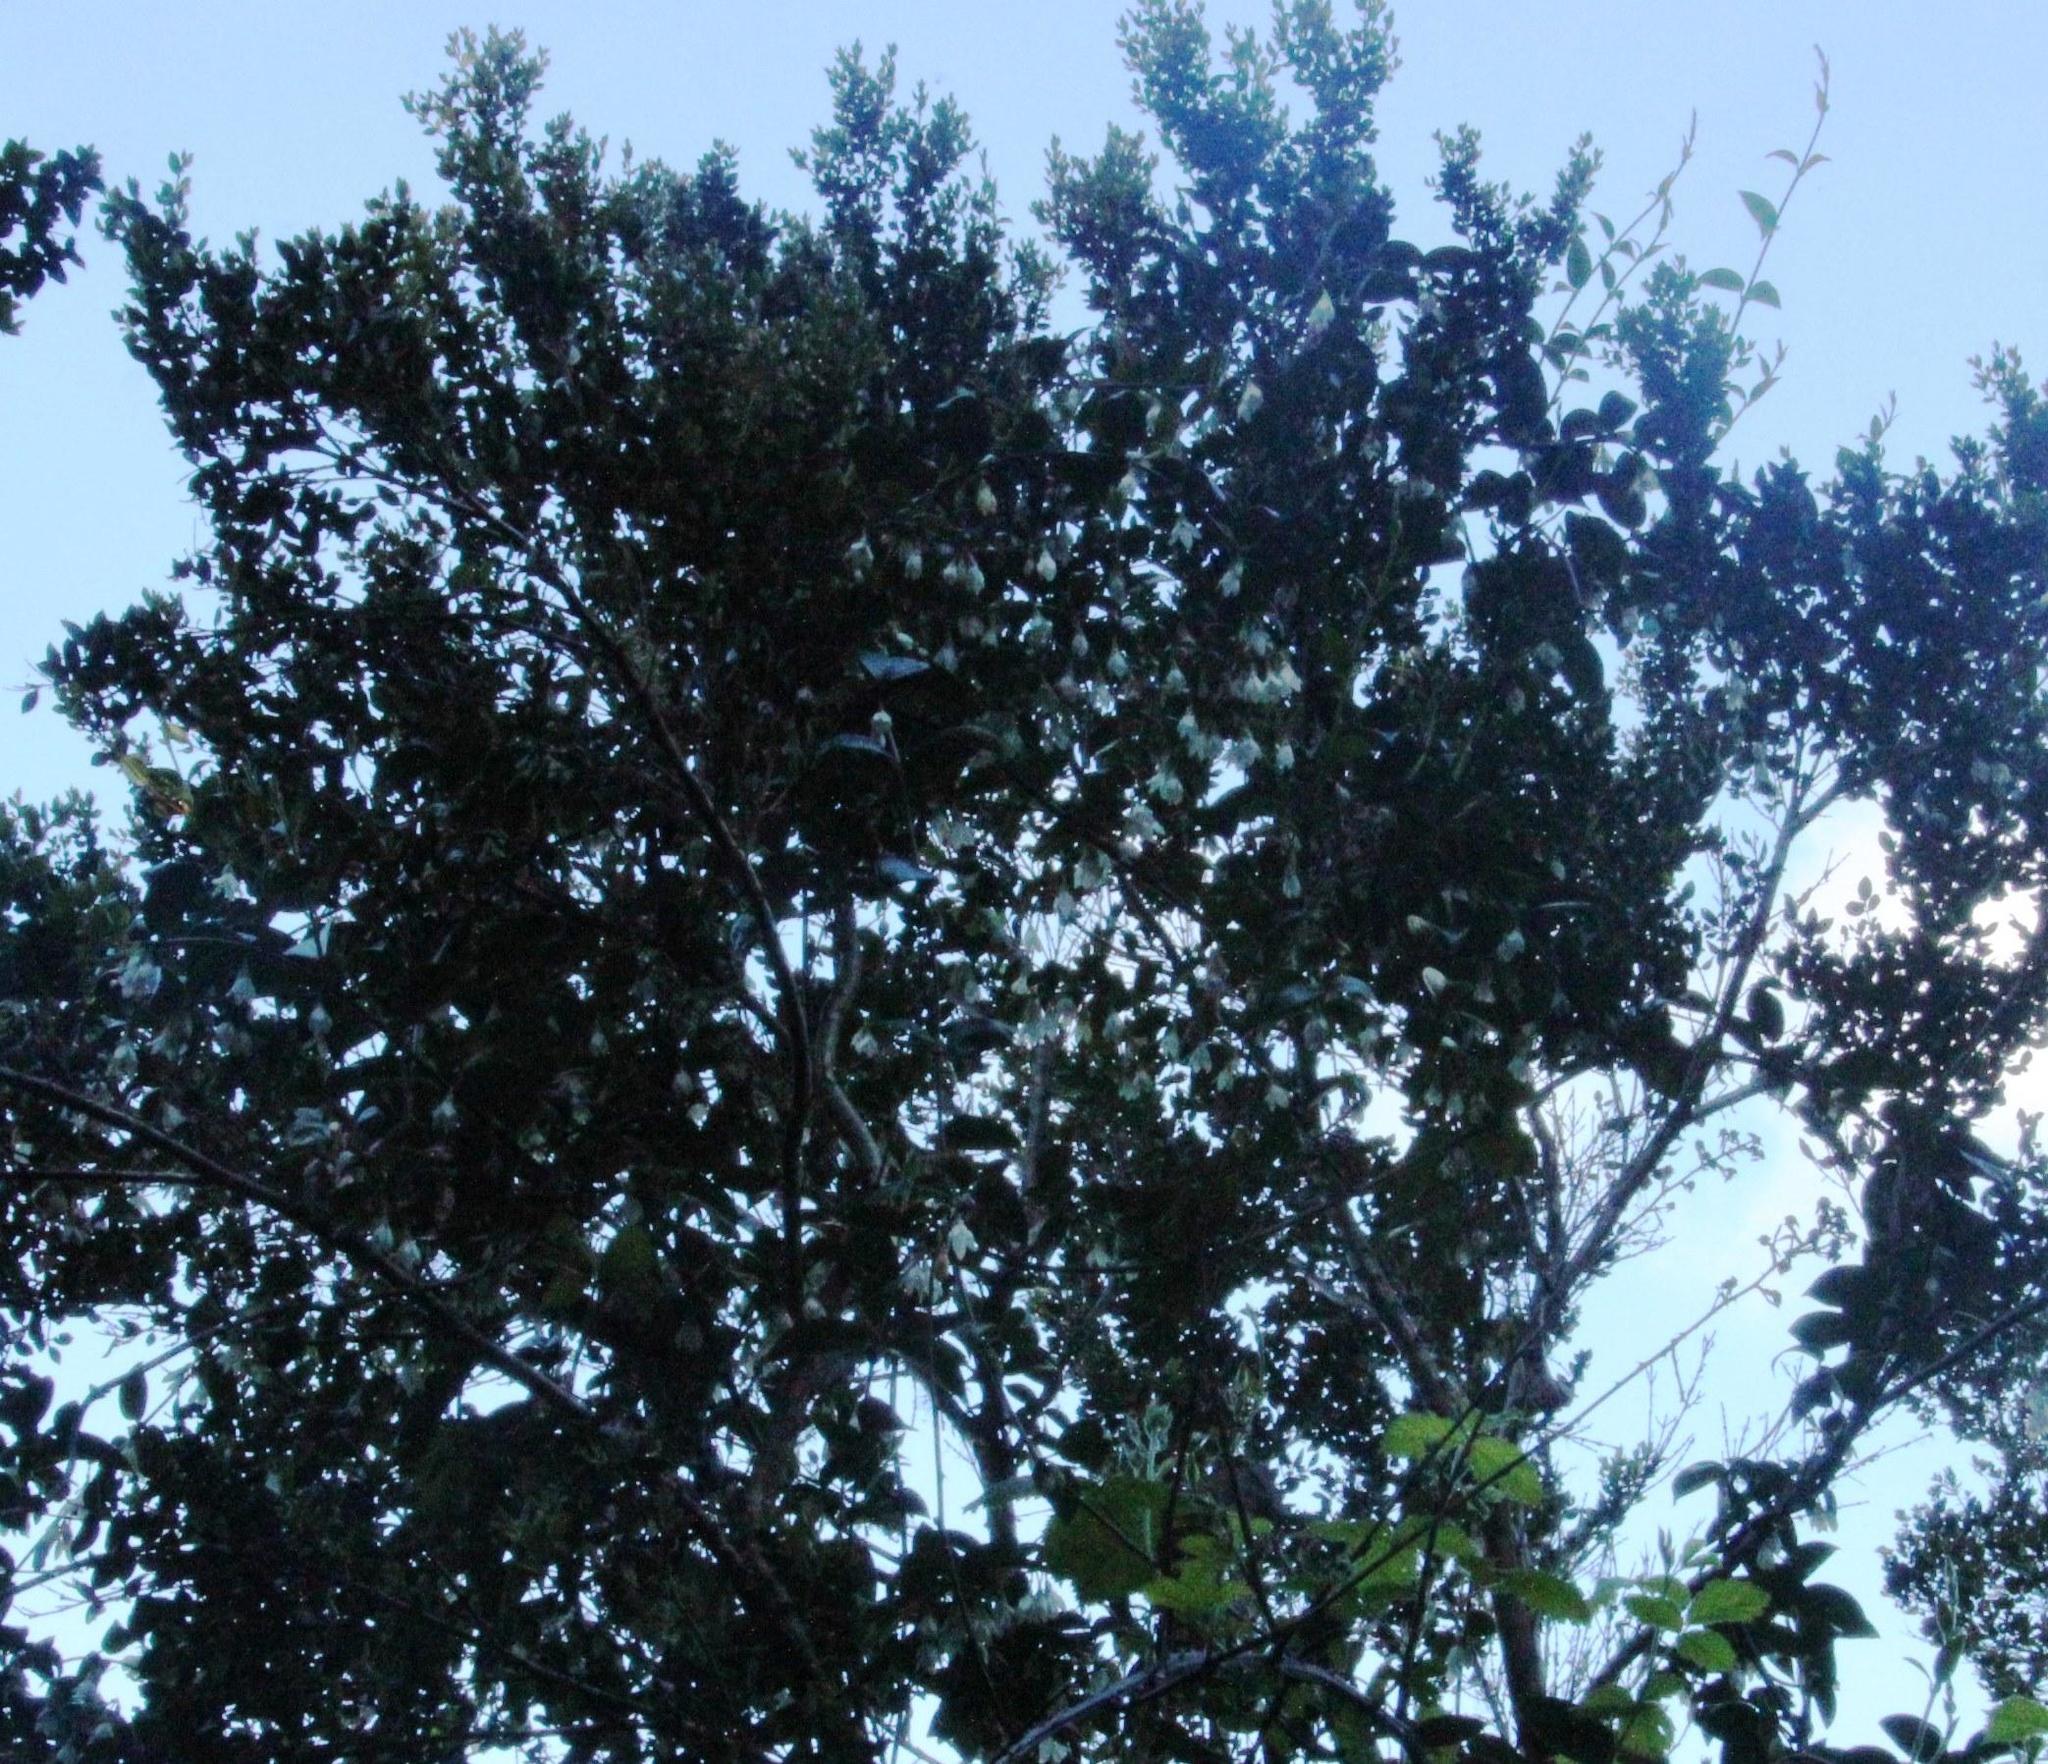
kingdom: Plantae
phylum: Tracheophyta
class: Magnoliopsida
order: Gentianales
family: Apocynaceae
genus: Mandevilla
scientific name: Mandevilla pubescens
